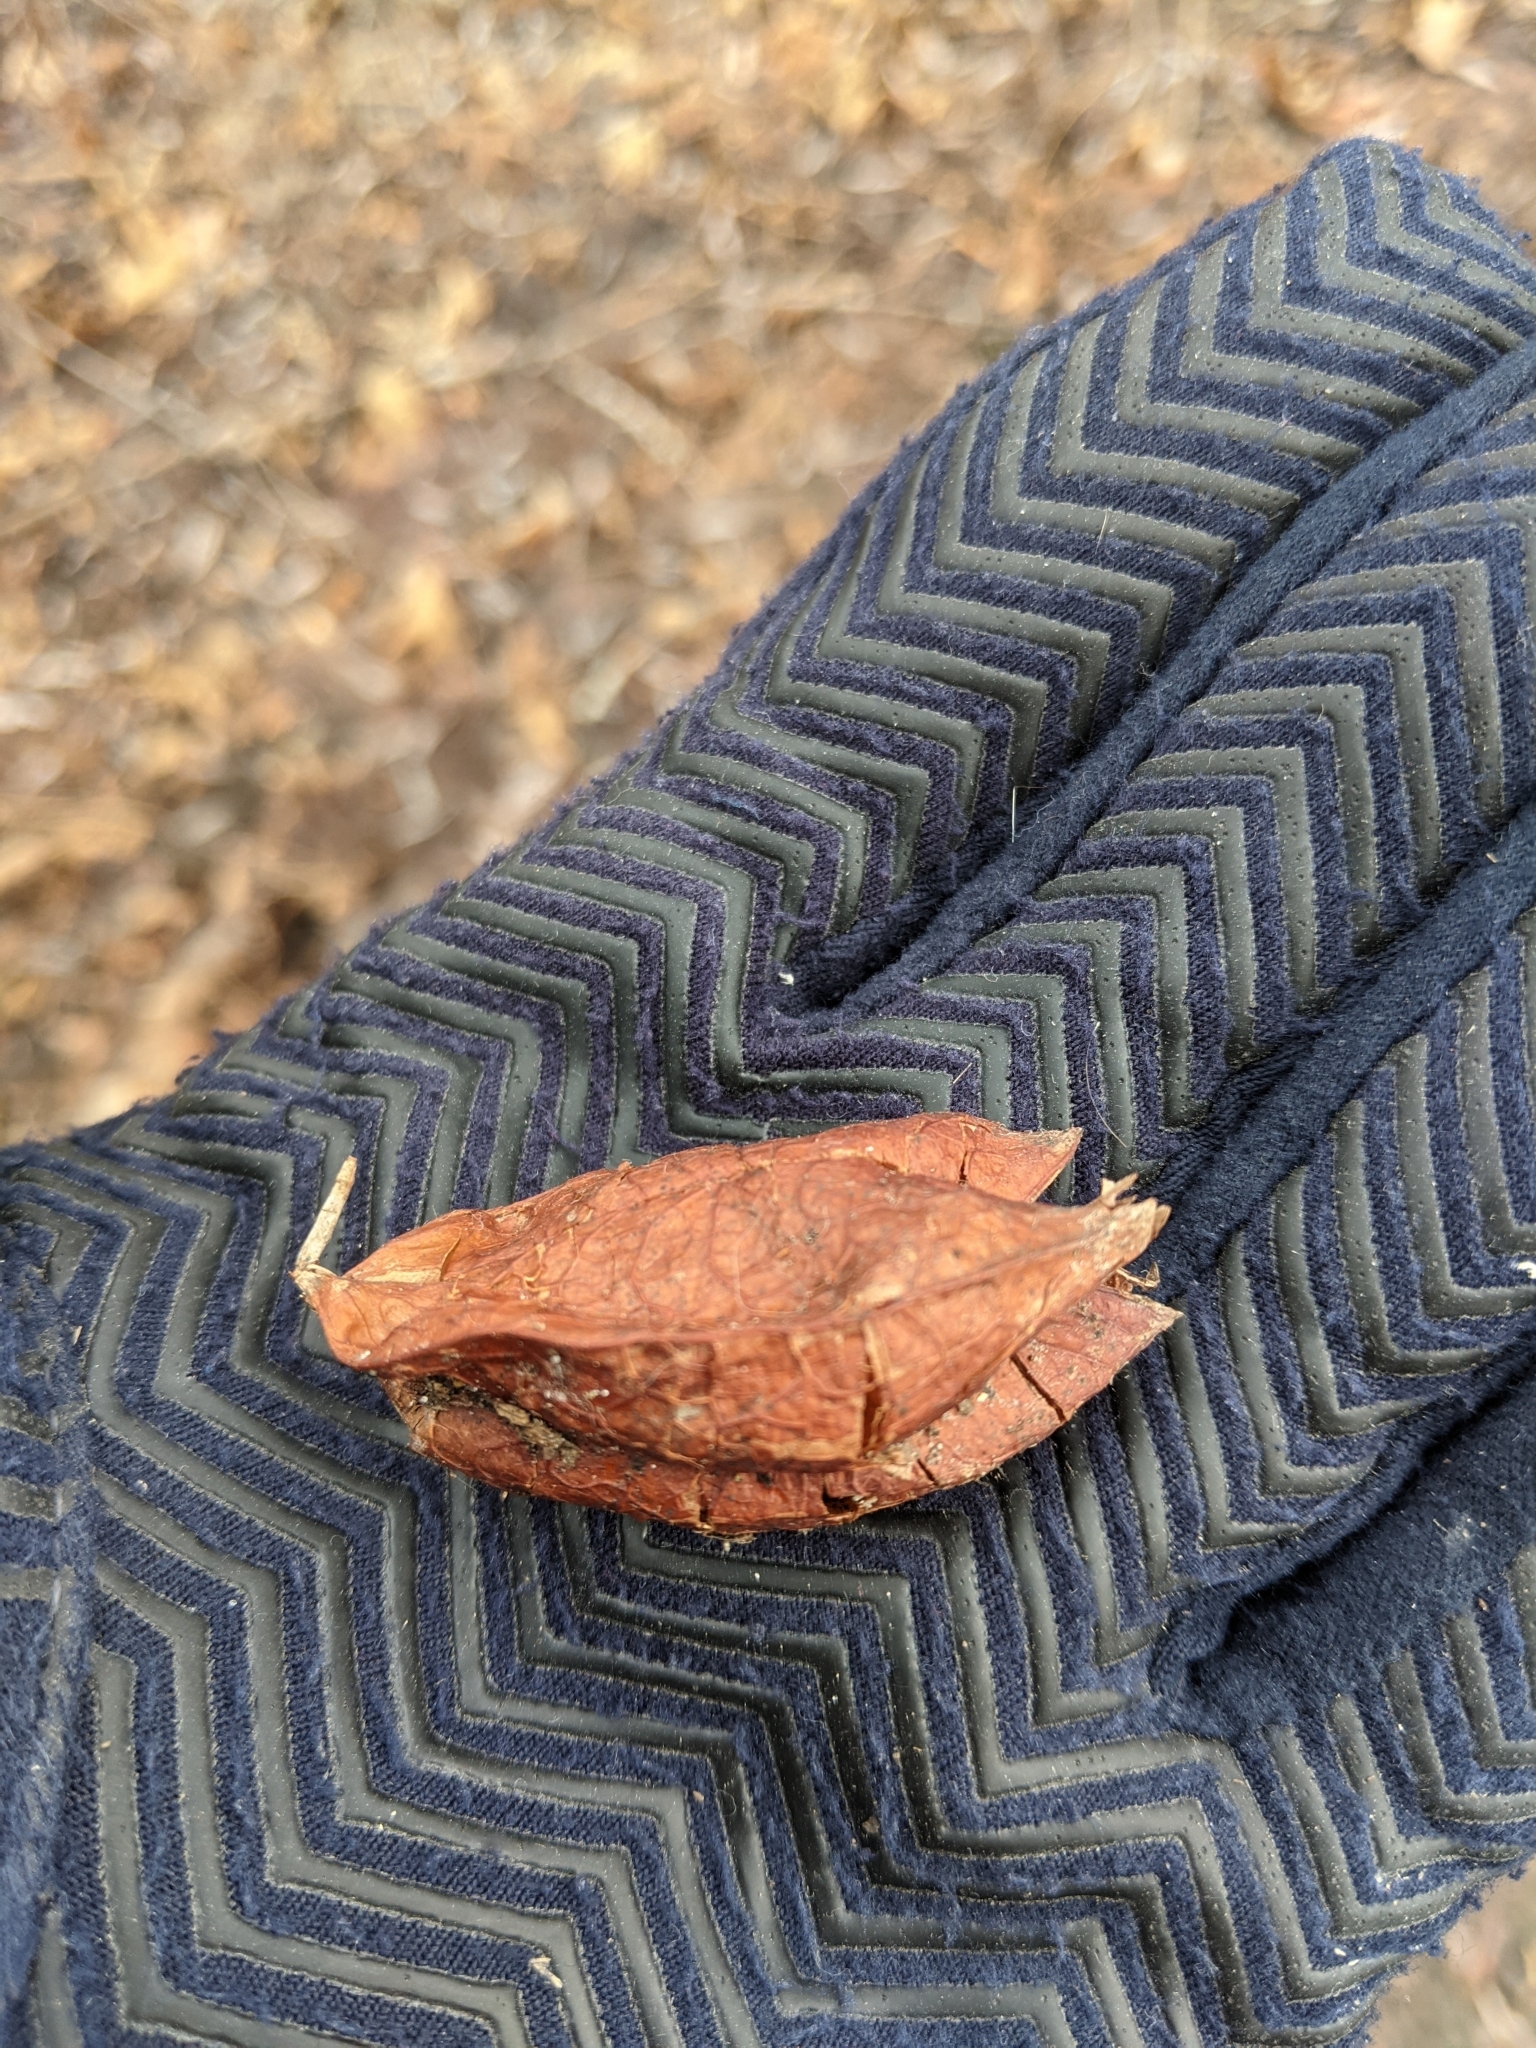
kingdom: Plantae
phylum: Tracheophyta
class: Magnoliopsida
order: Crossosomatales
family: Staphyleaceae
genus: Staphylea
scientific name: Staphylea trifolia
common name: American bladdernut
